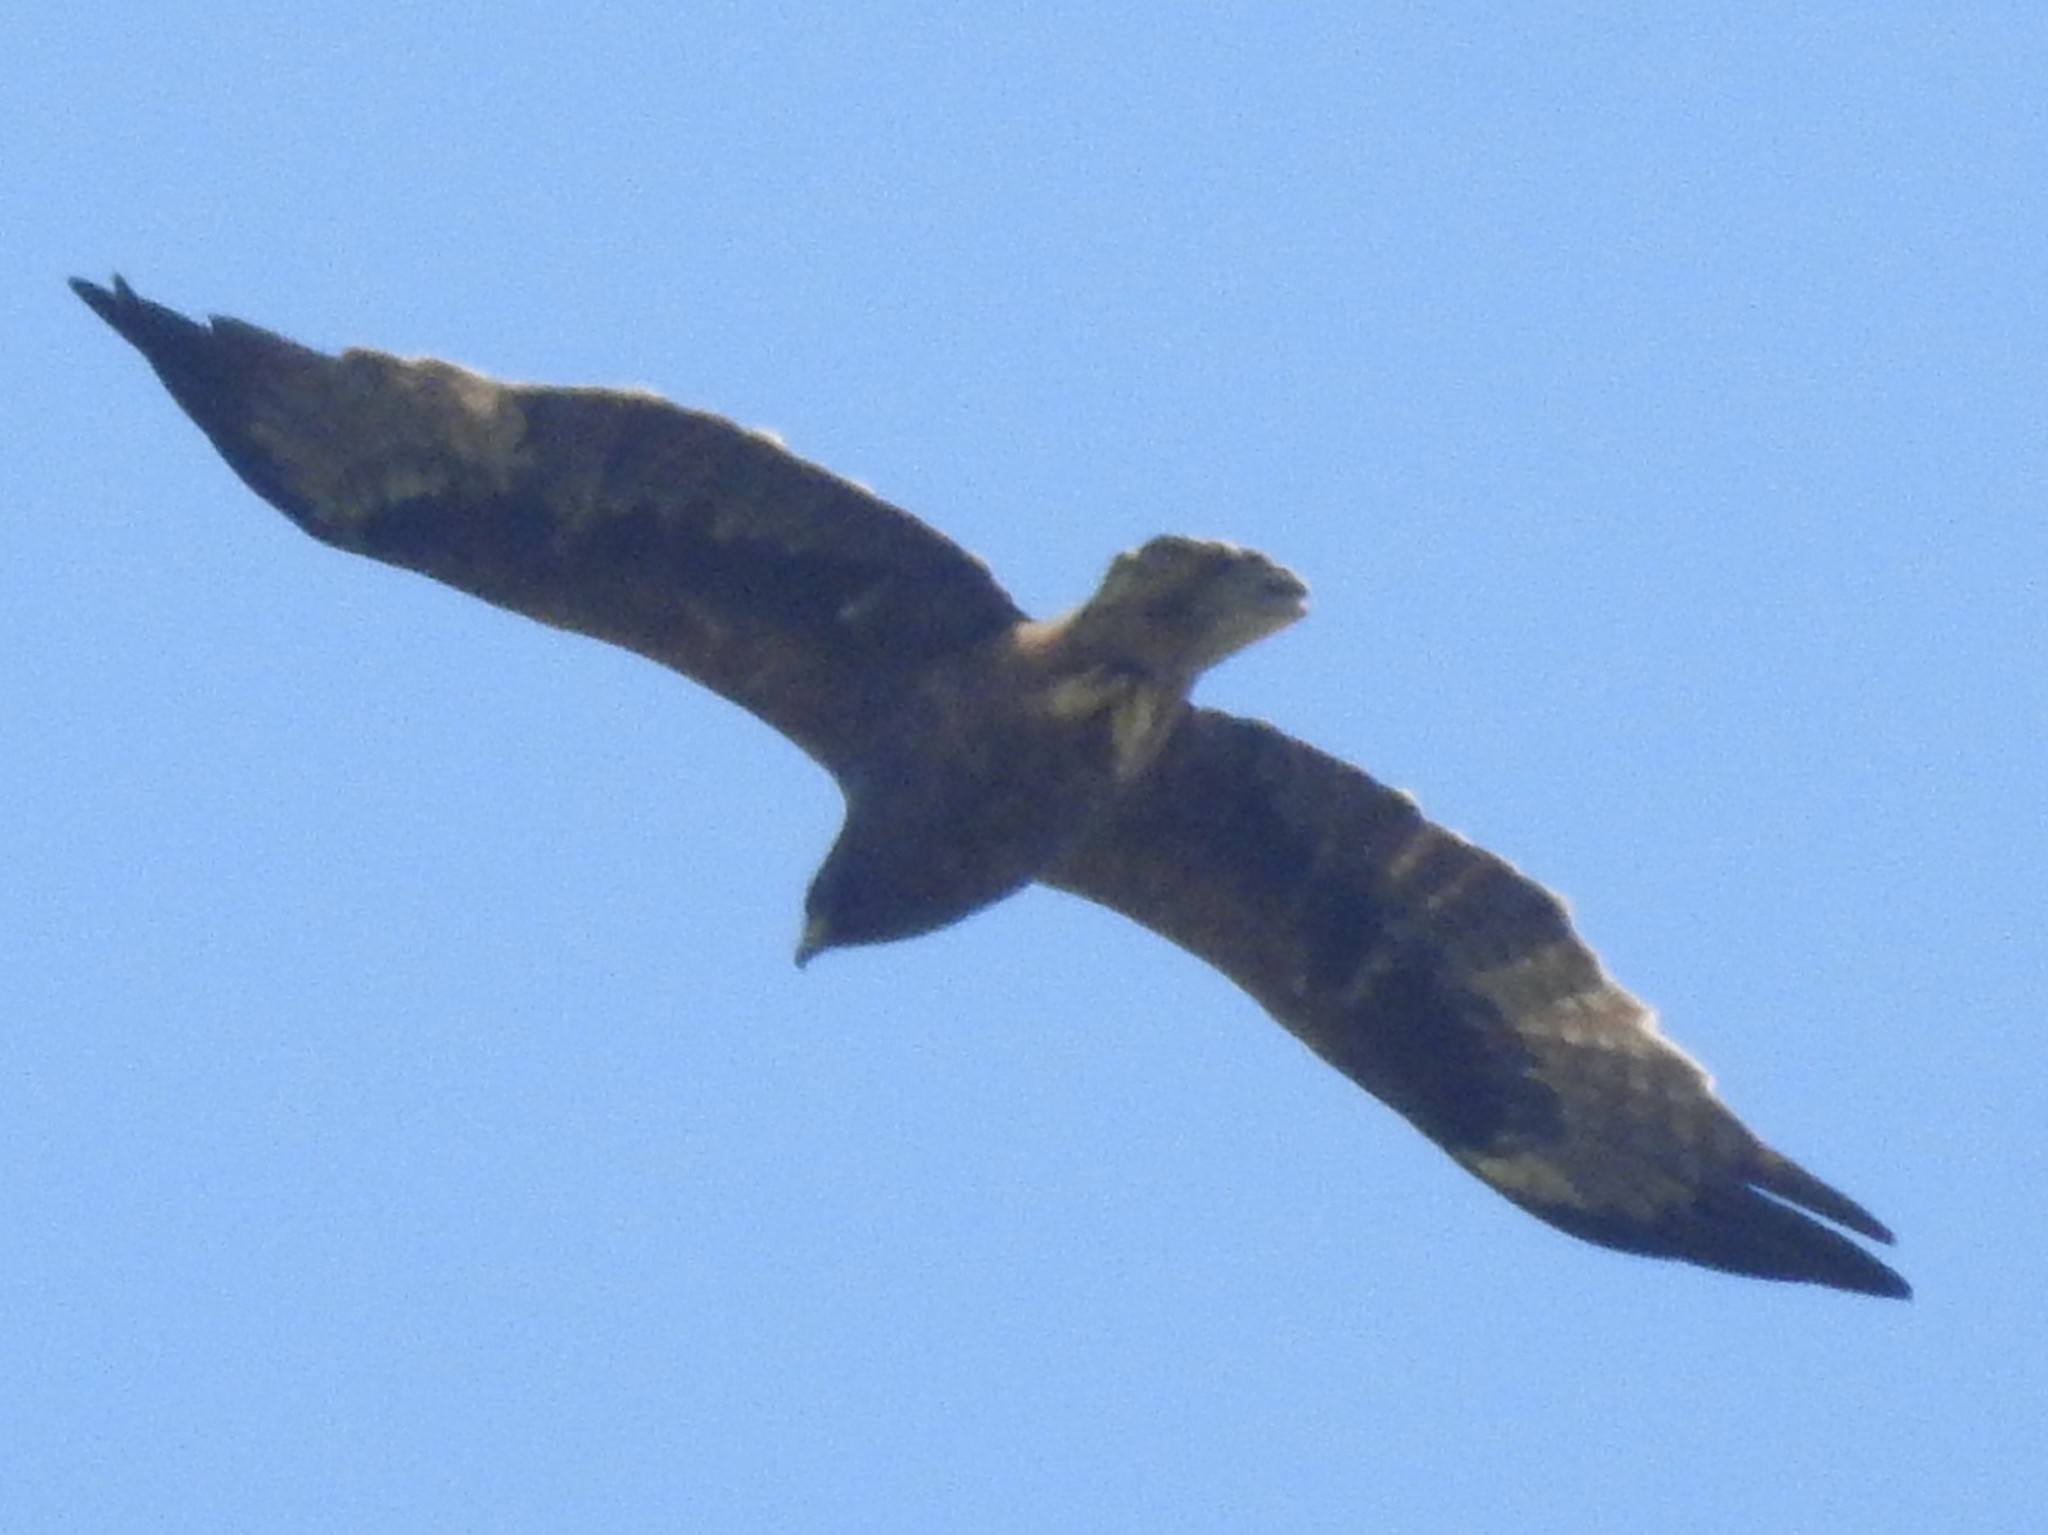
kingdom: Animalia
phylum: Chordata
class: Aves
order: Accipitriformes
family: Accipitridae
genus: Hieraaetus
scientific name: Hieraaetus pennatus
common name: Booted eagle
